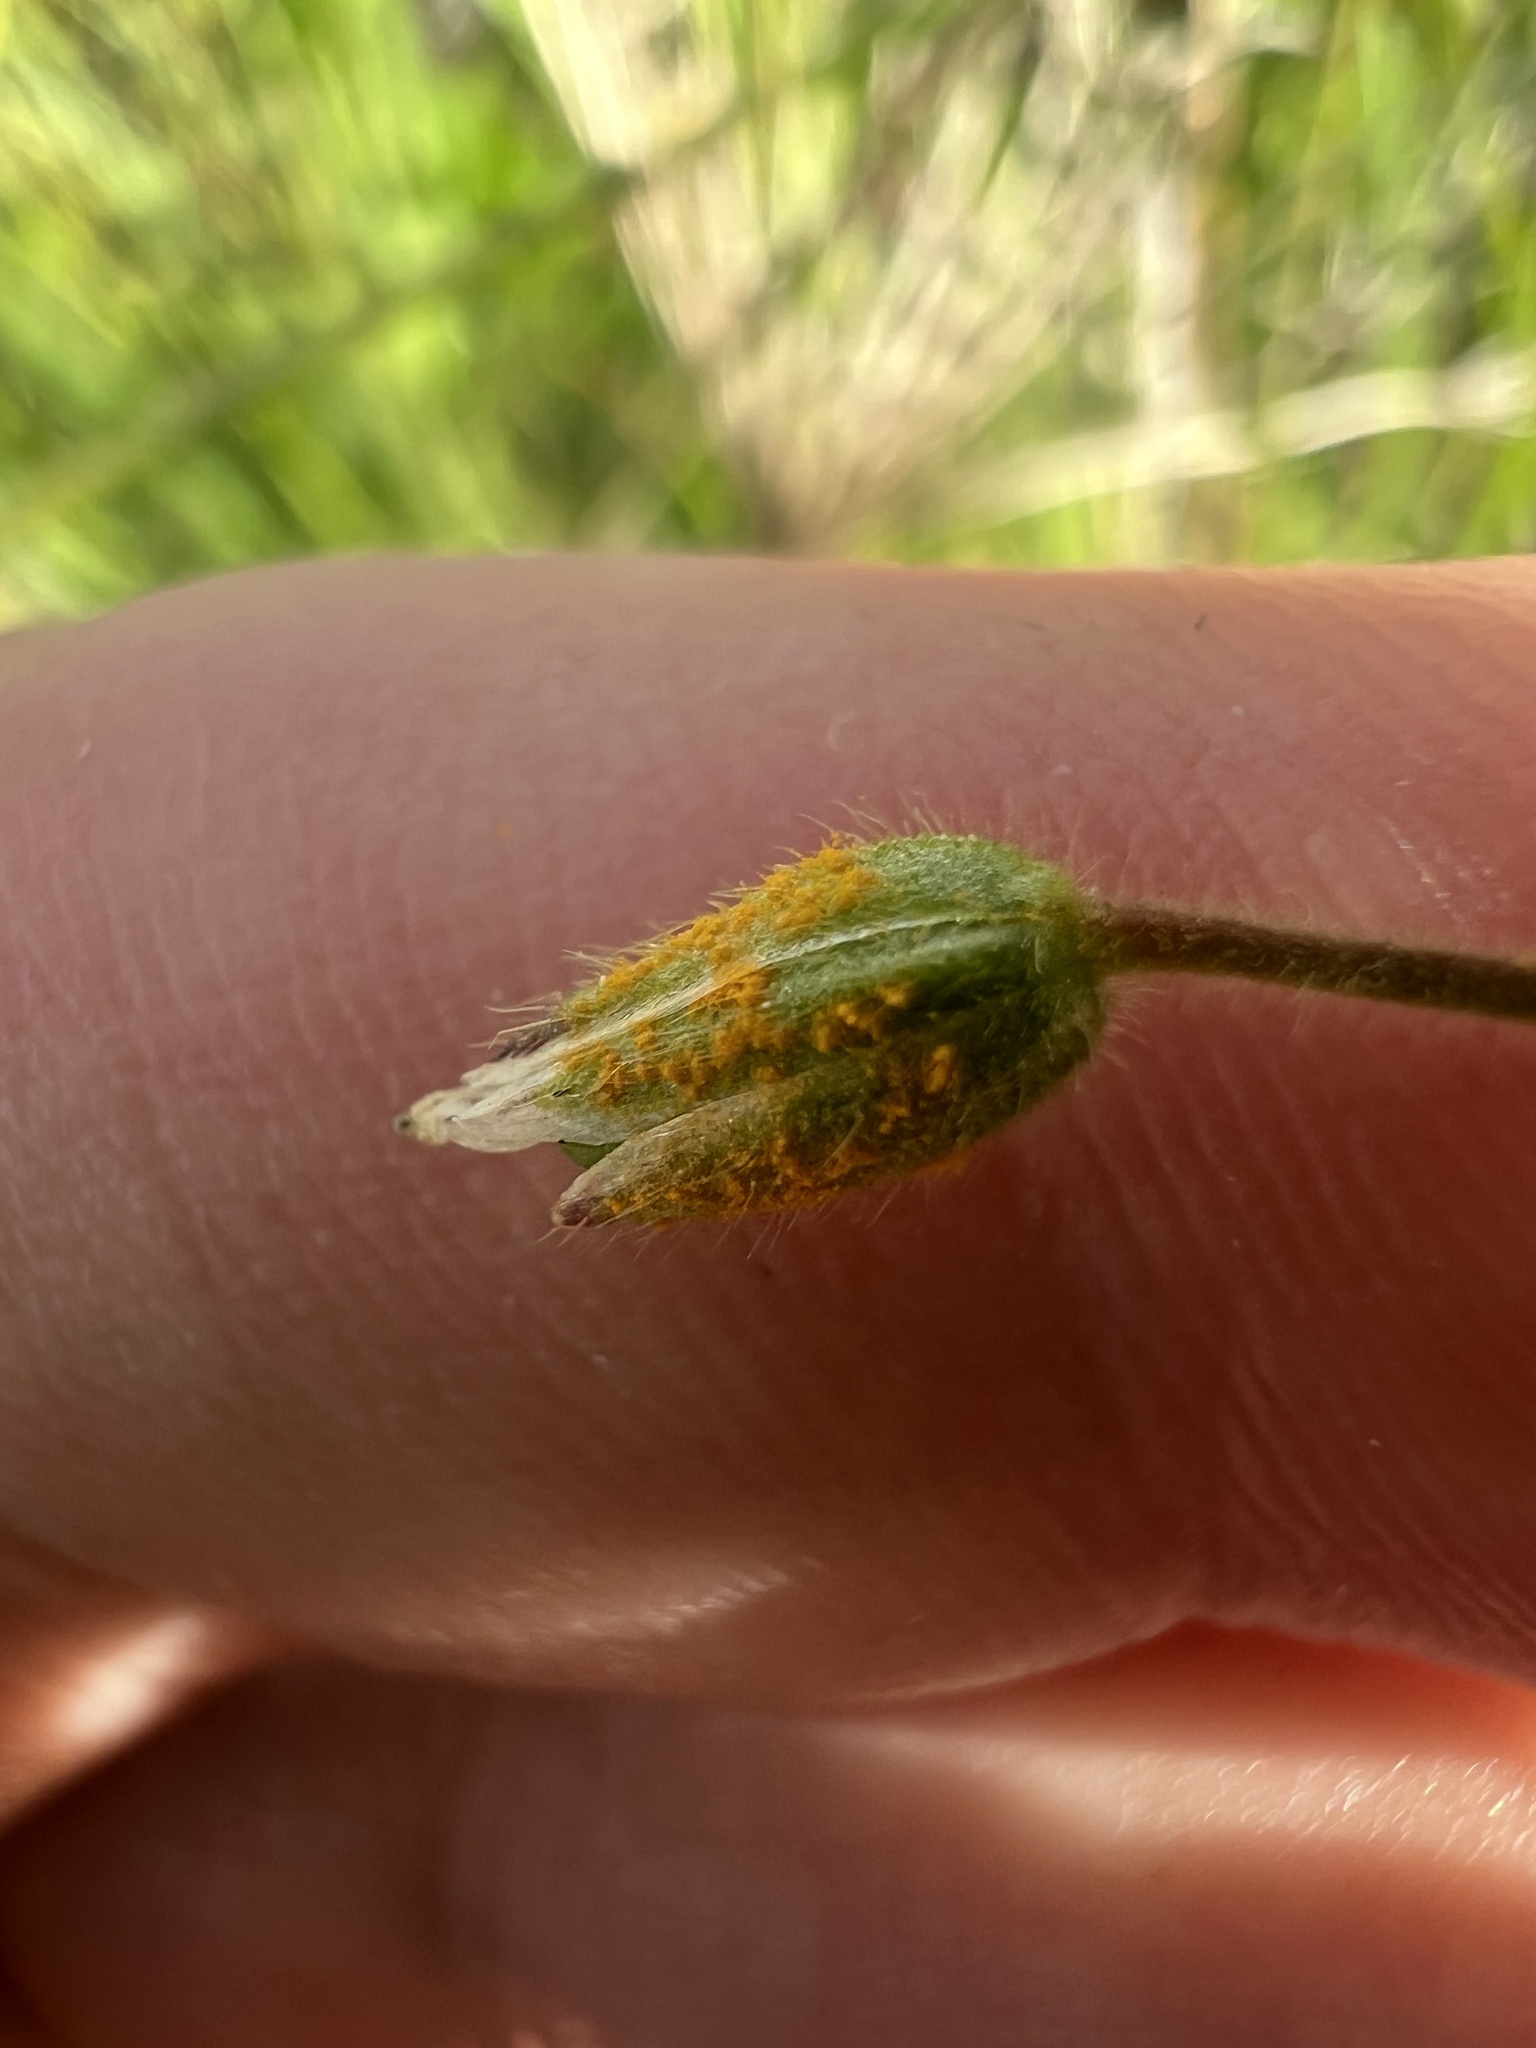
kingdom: Fungi
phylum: Basidiomycota
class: Pucciniomycetes
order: Pucciniales
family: Pucciniastraceae
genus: Melampsorella
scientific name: Melampsorella elatina
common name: Fir broom rust
